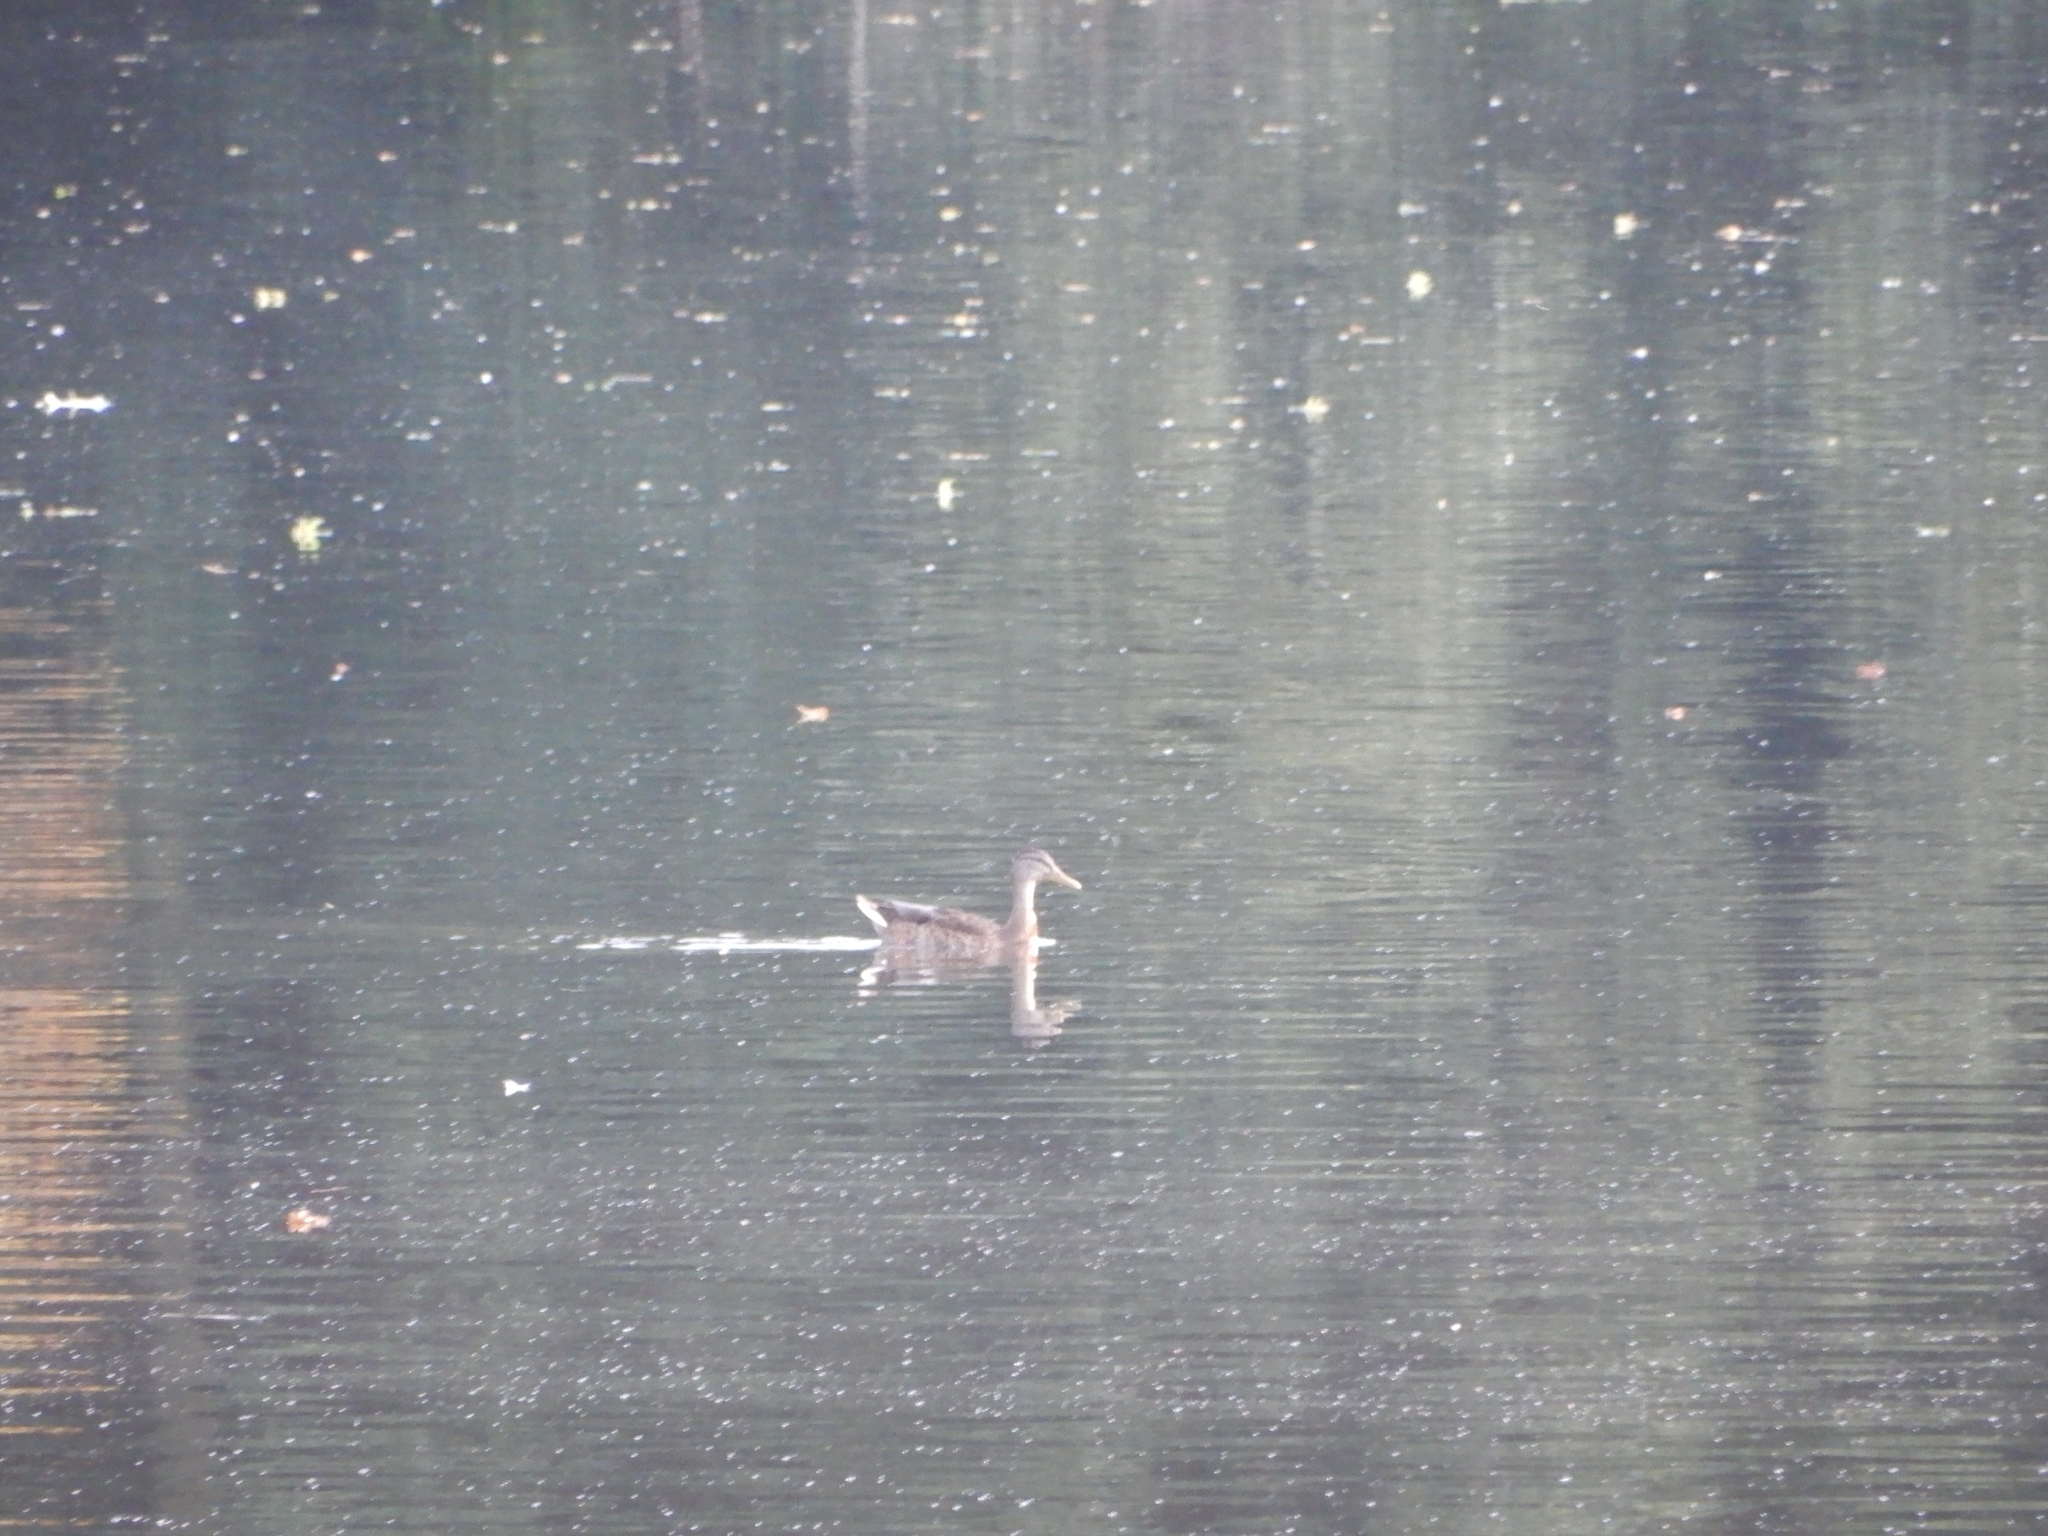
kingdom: Animalia
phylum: Chordata
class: Aves
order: Anseriformes
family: Anatidae
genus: Anas
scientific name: Anas platyrhynchos
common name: Mallard
